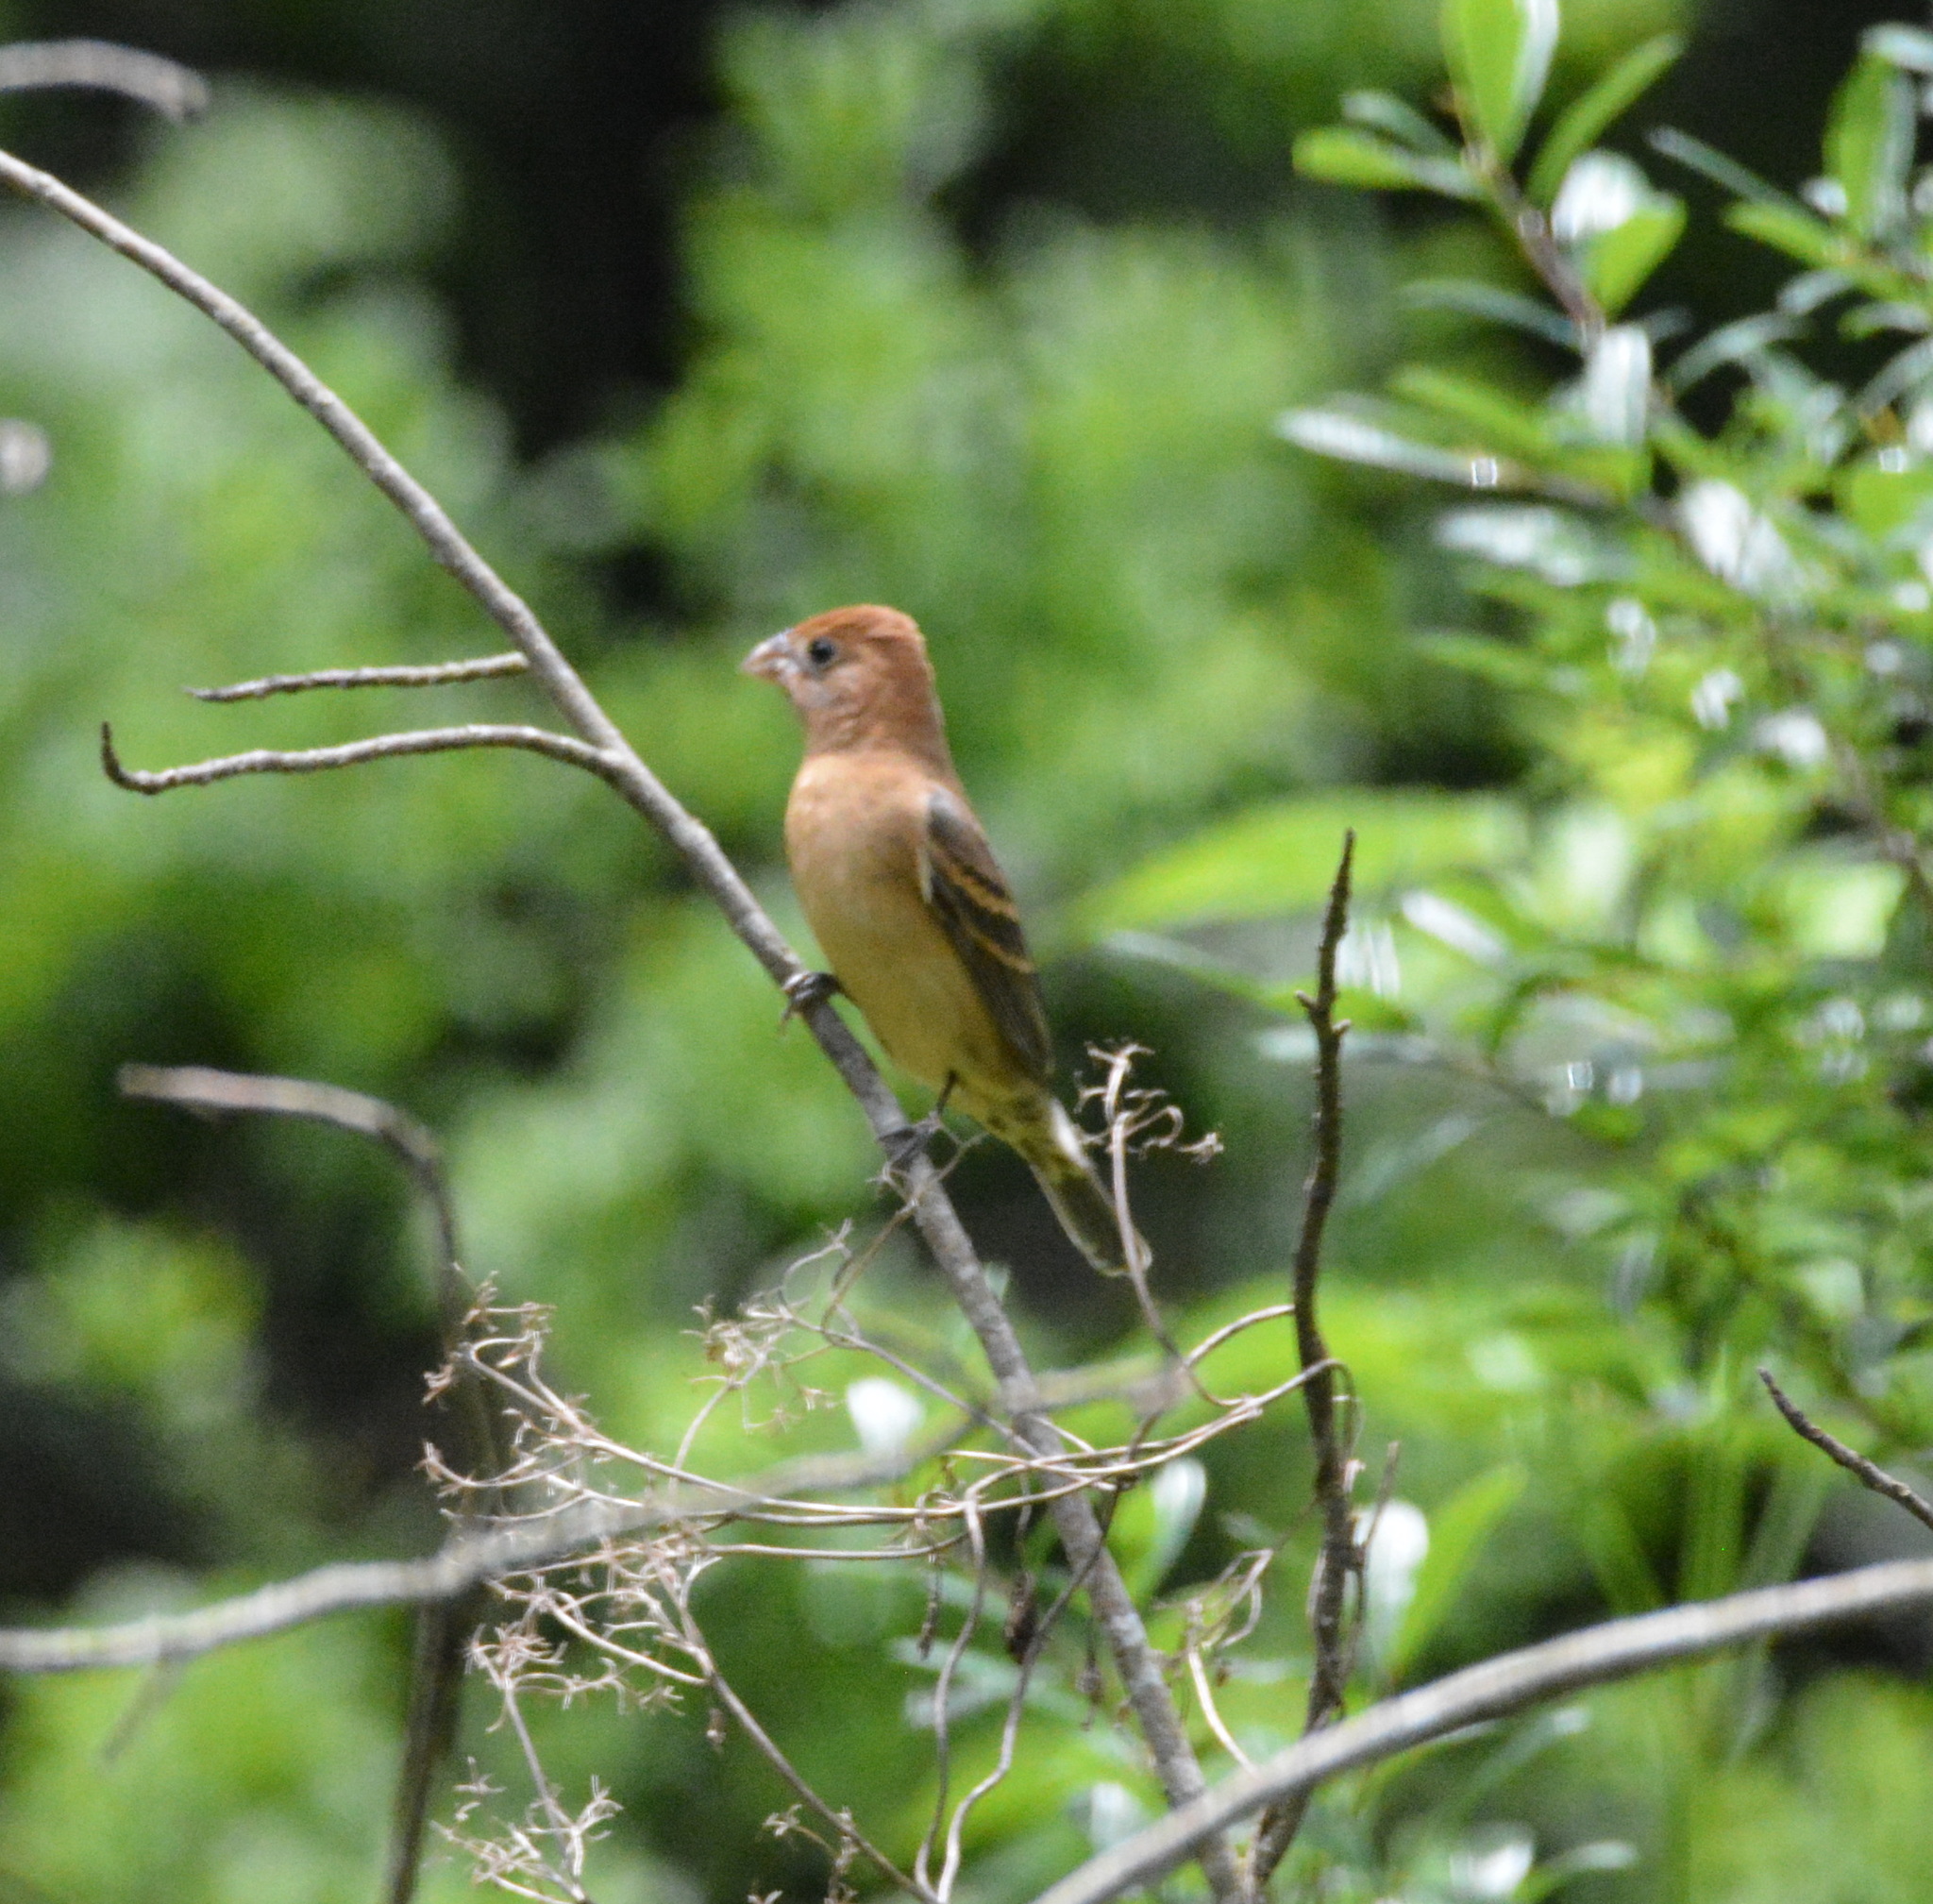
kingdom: Animalia
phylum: Chordata
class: Aves
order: Passeriformes
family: Cardinalidae
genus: Passerina
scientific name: Passerina caerulea
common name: Blue grosbeak
